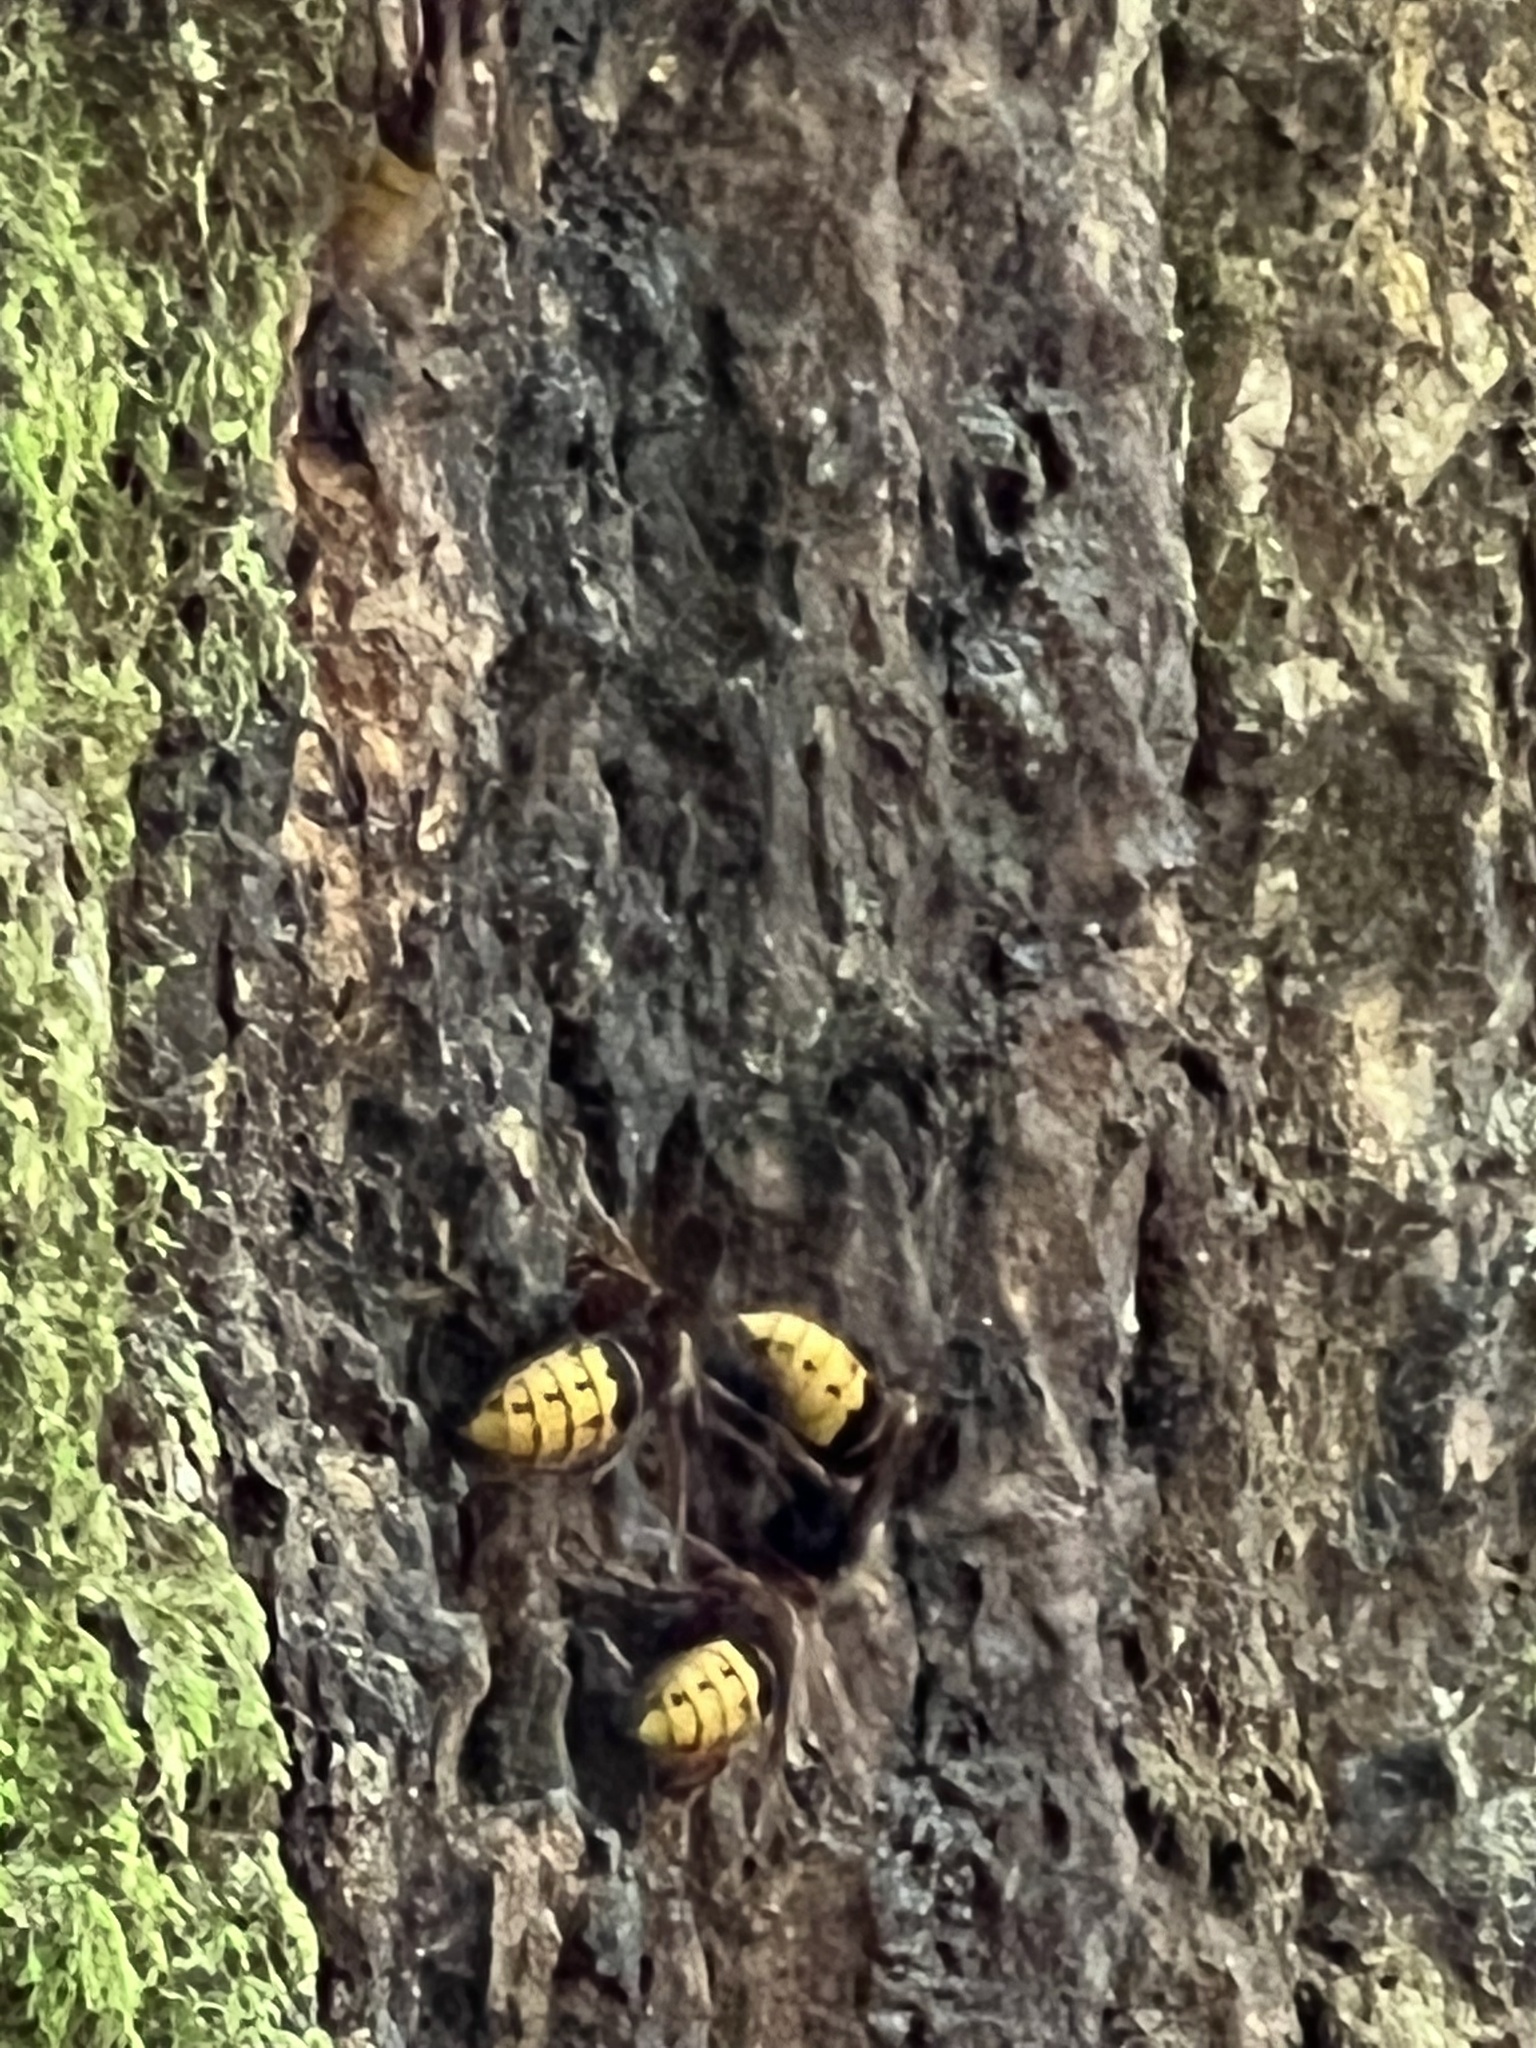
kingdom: Animalia
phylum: Arthropoda
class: Insecta
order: Hymenoptera
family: Vespidae
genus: Vespa
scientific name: Vespa crabro
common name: Hornet
